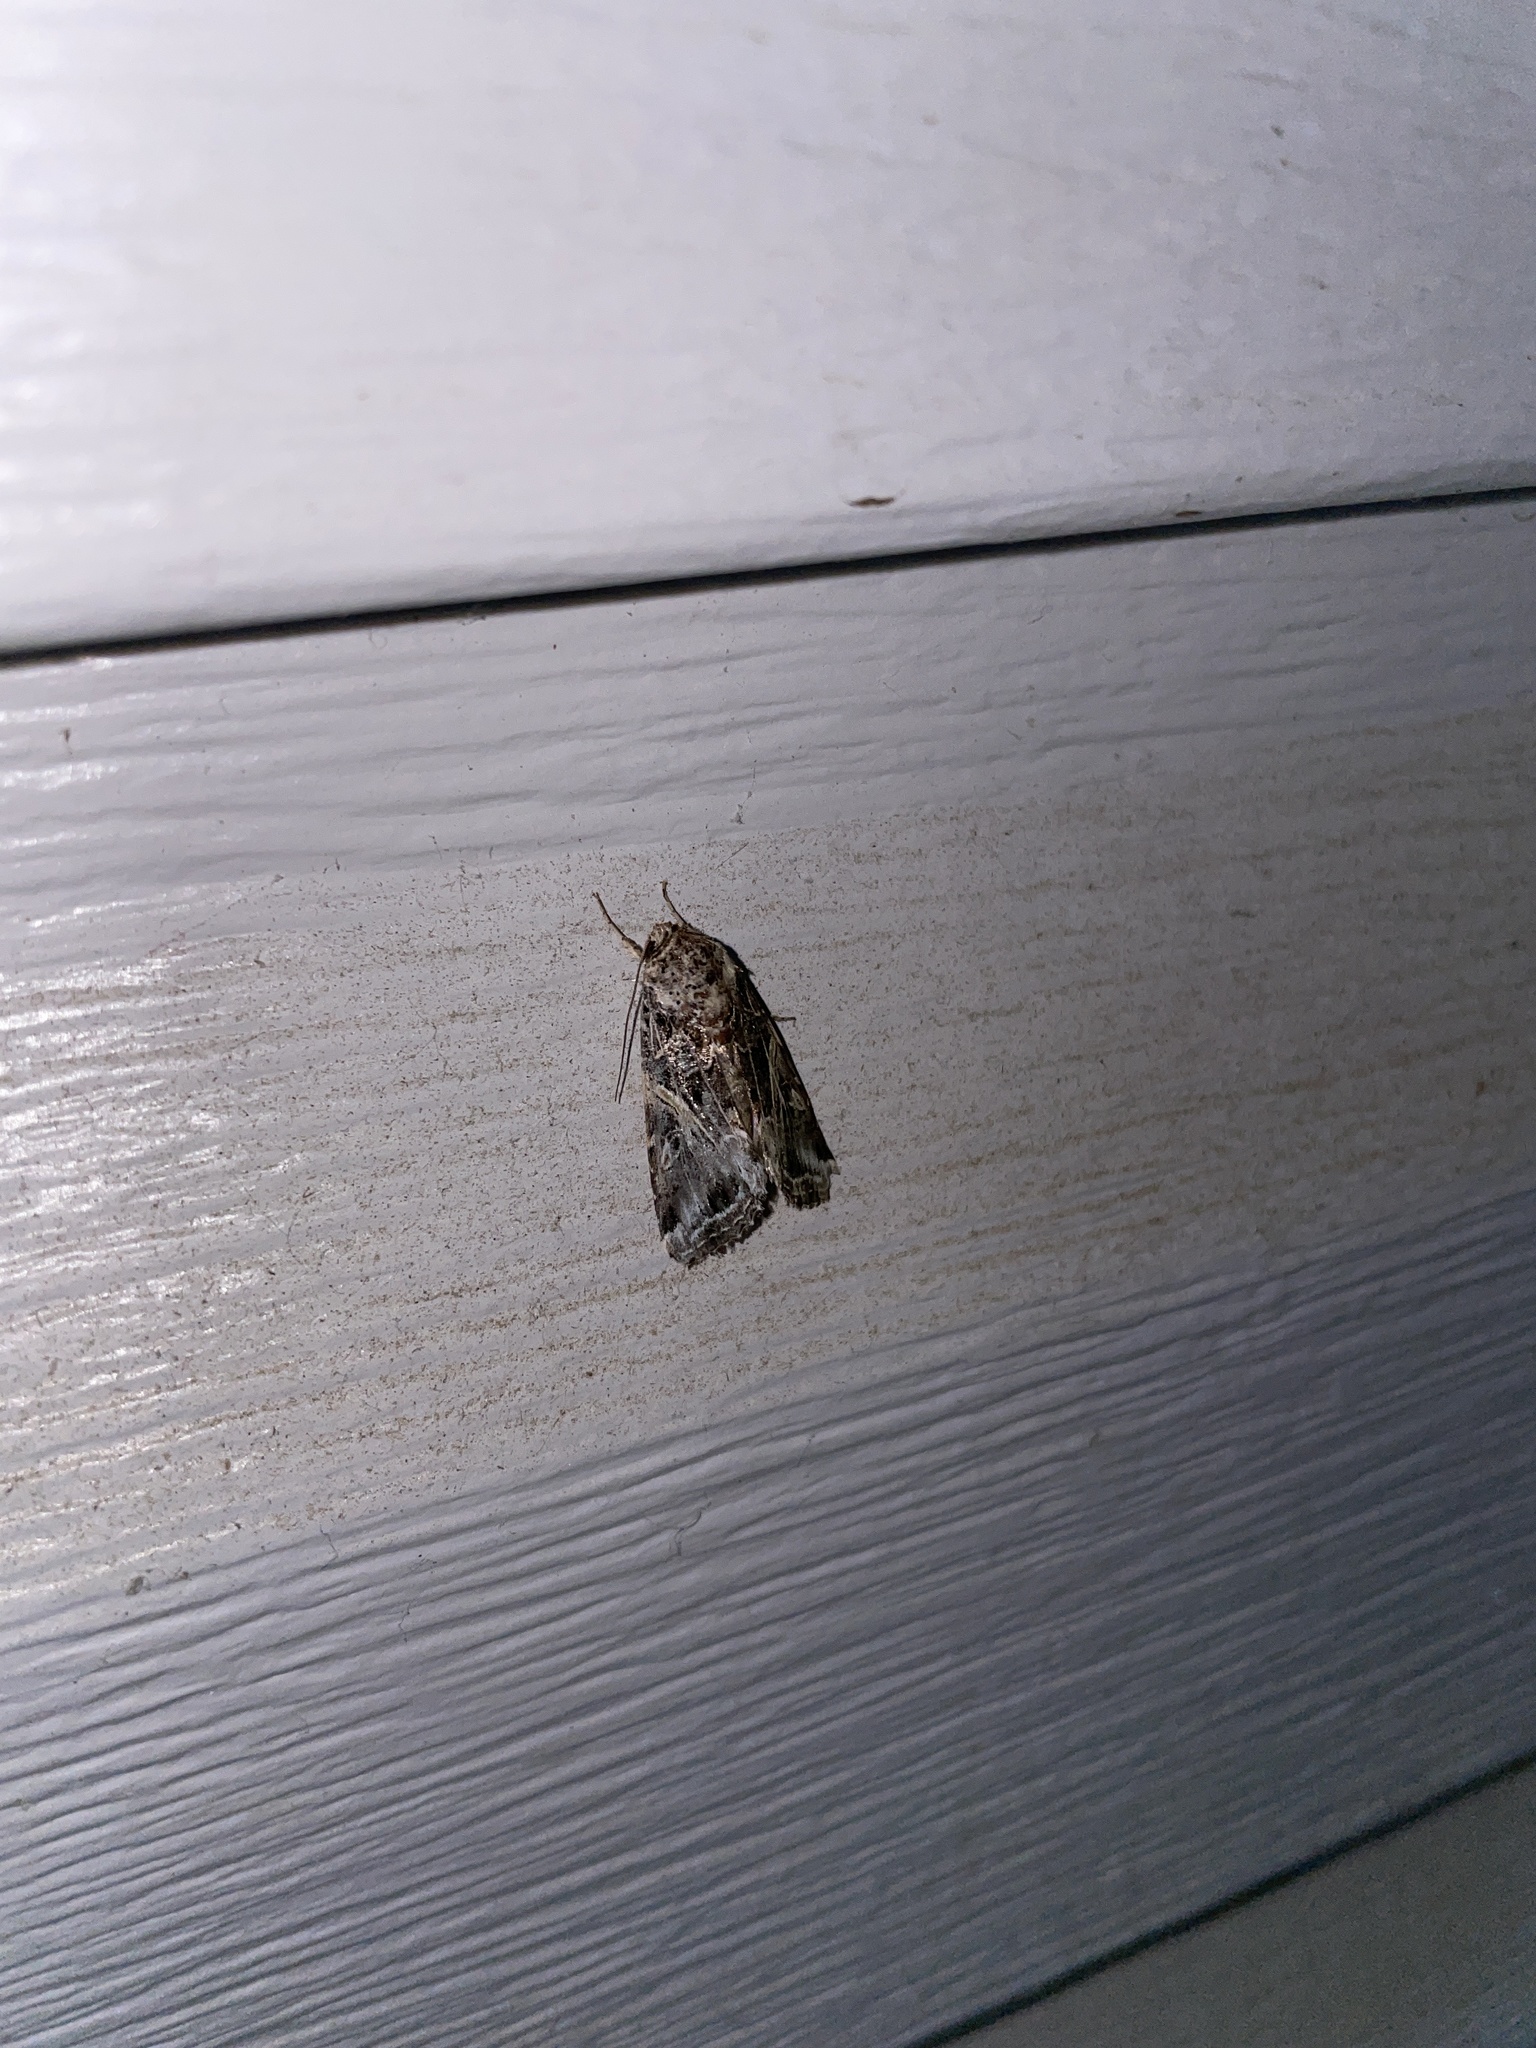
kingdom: Animalia
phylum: Arthropoda
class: Insecta
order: Lepidoptera
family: Noctuidae
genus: Spodoptera
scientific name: Spodoptera ornithogalli
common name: Yellow-striped armyworm
